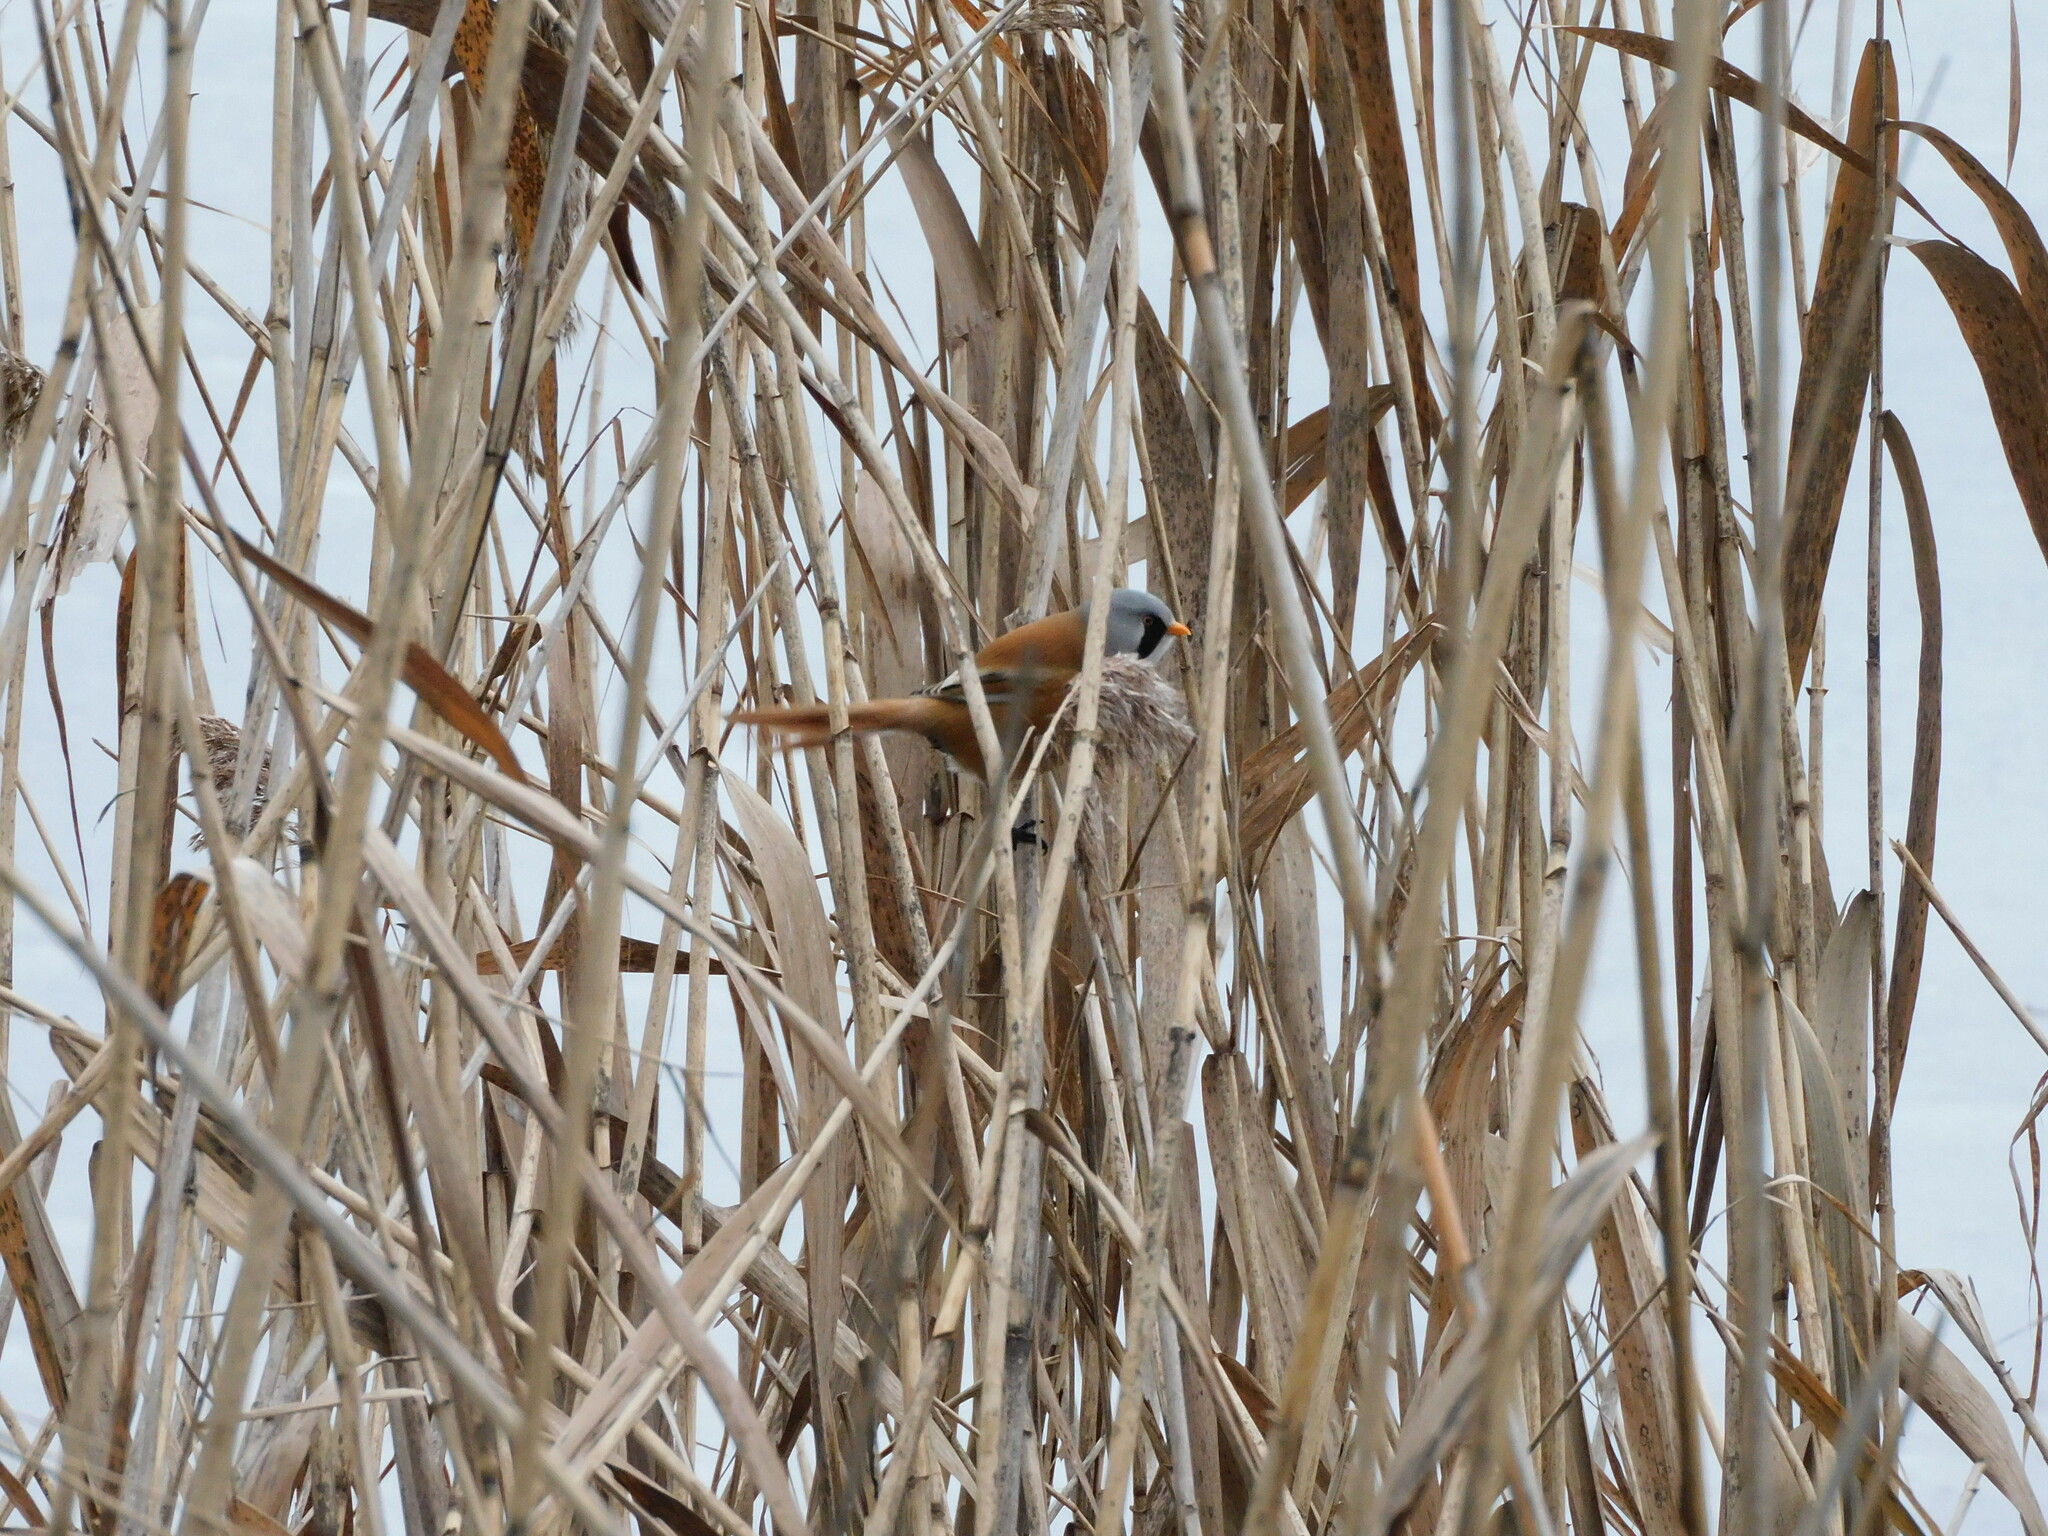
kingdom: Animalia
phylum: Chordata
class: Aves
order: Passeriformes
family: Panuridae
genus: Panurus
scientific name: Panurus biarmicus
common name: Bearded reedling
